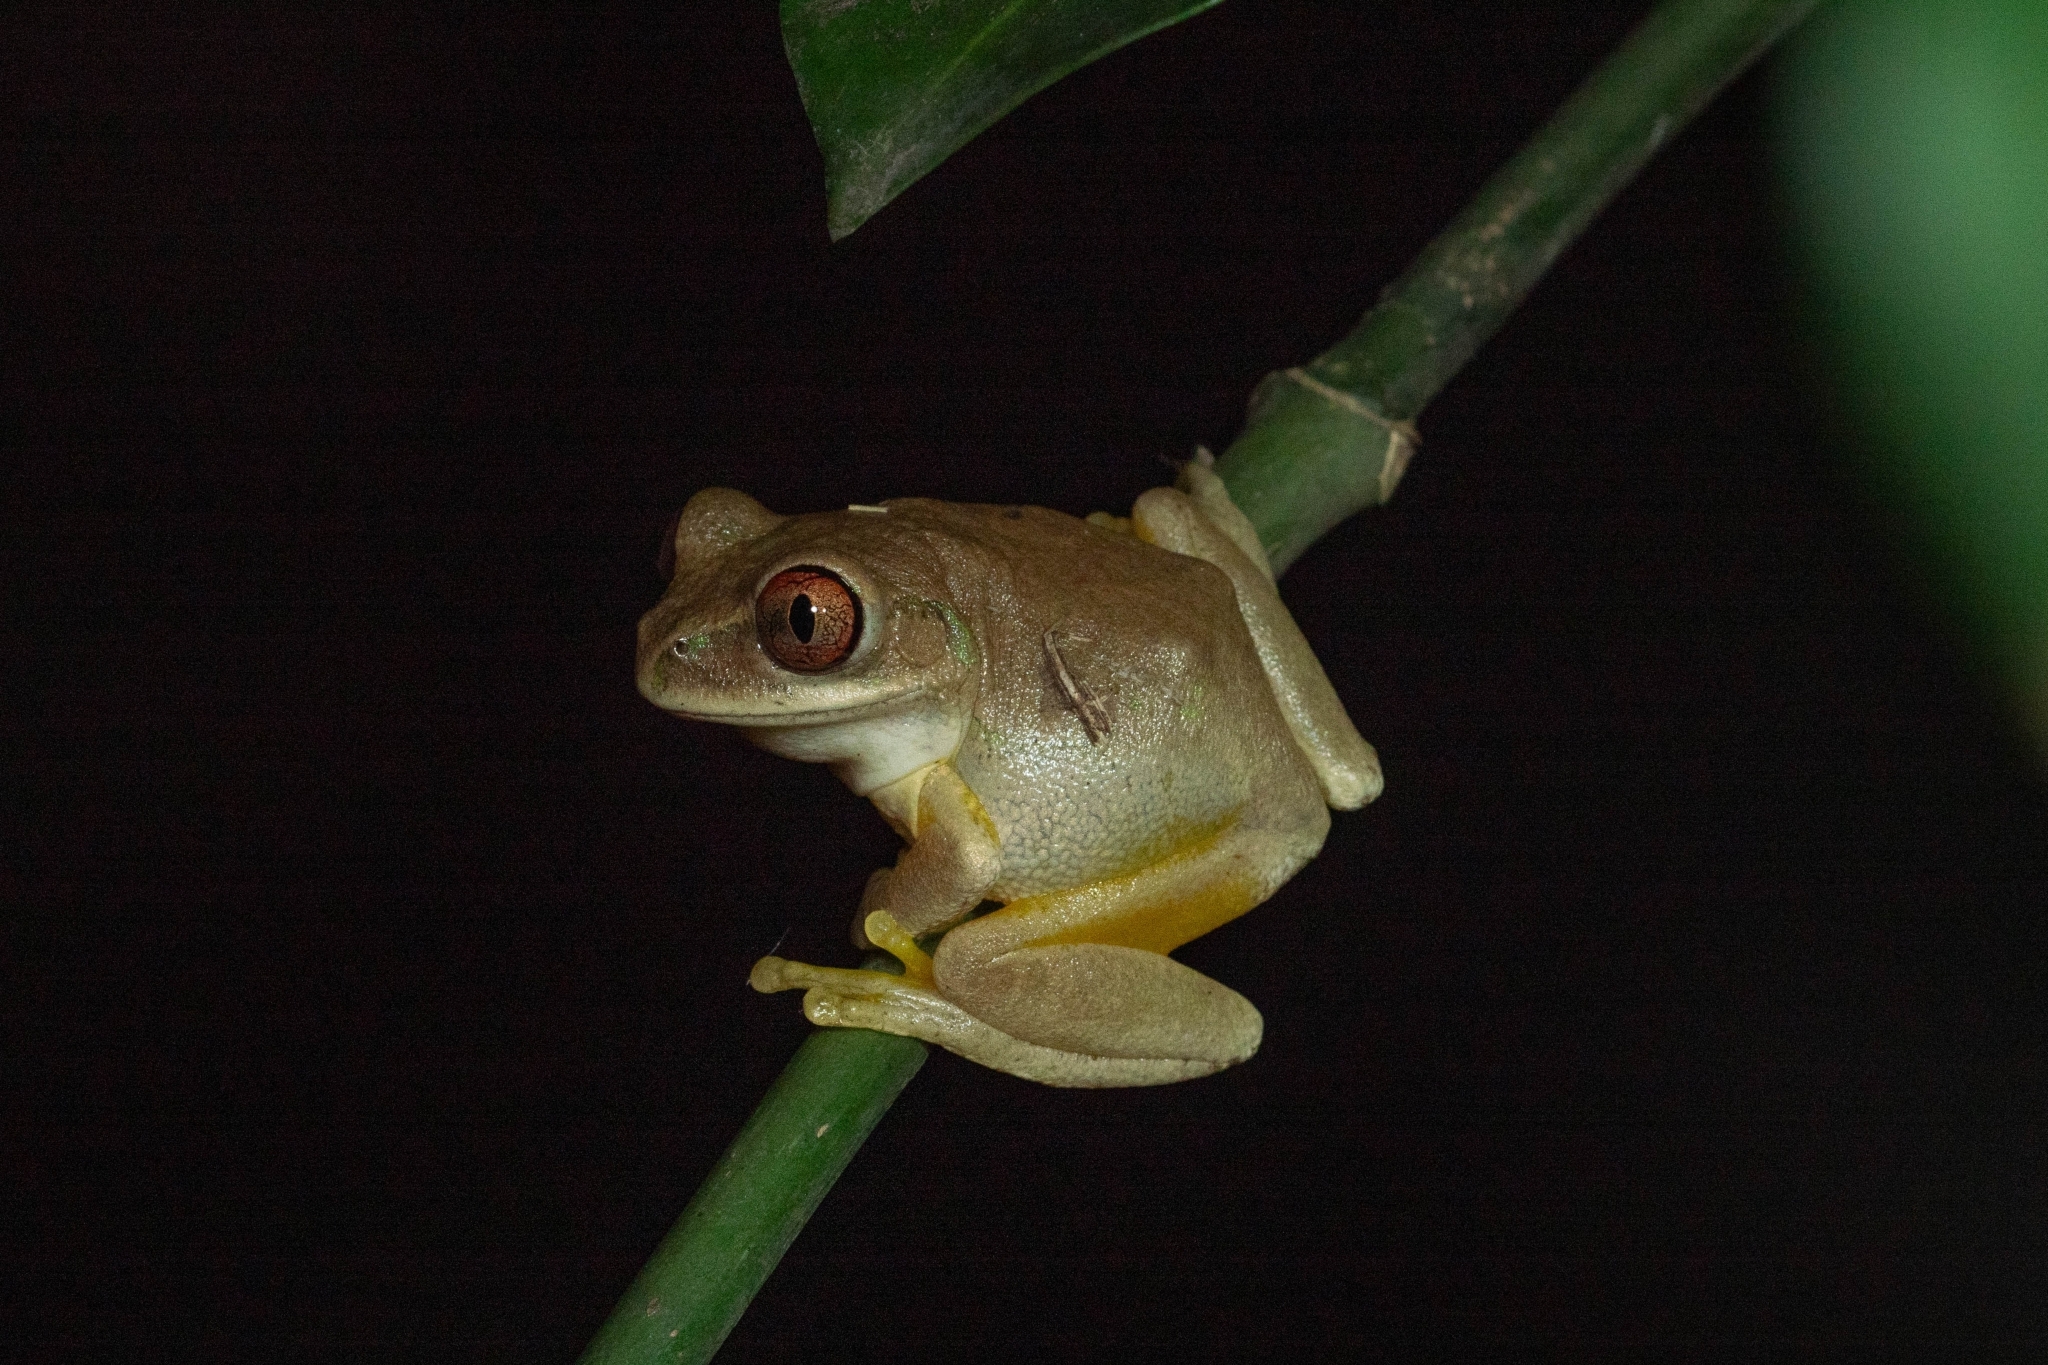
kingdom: Animalia
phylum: Chordata
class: Amphibia
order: Anura
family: Arthroleptidae
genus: Leptopelis
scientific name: Leptopelis natalensis
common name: Natal tree frog
